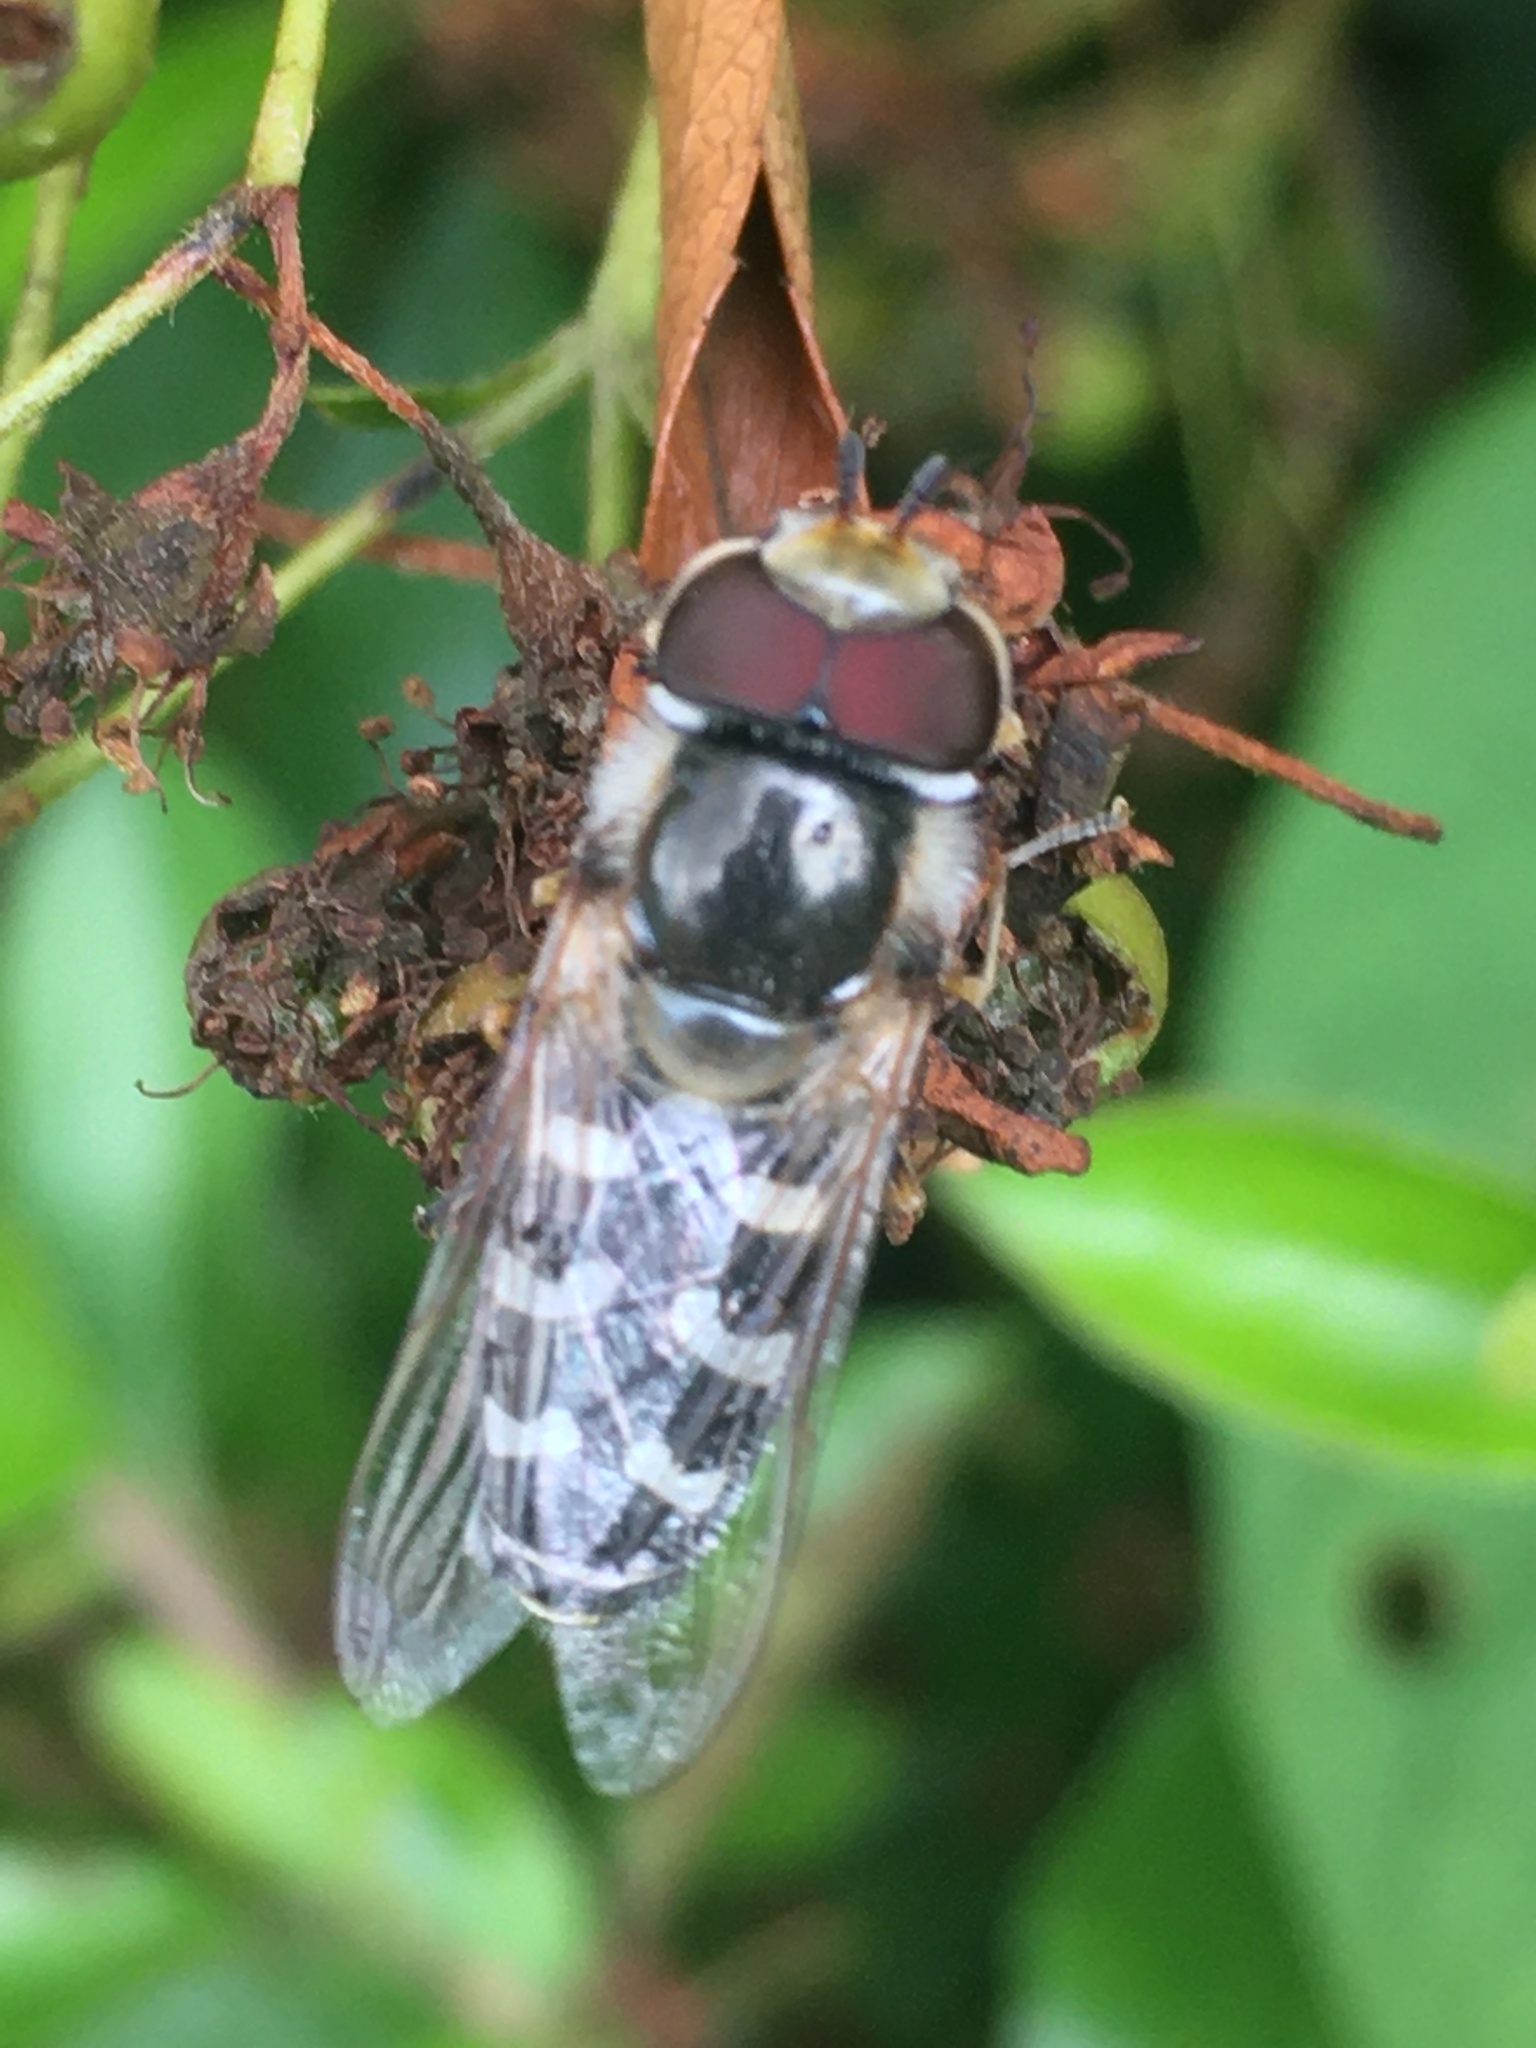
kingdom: Animalia
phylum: Arthropoda
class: Insecta
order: Diptera
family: Syrphidae
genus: Scaeva
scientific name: Scaeva pyrastri
